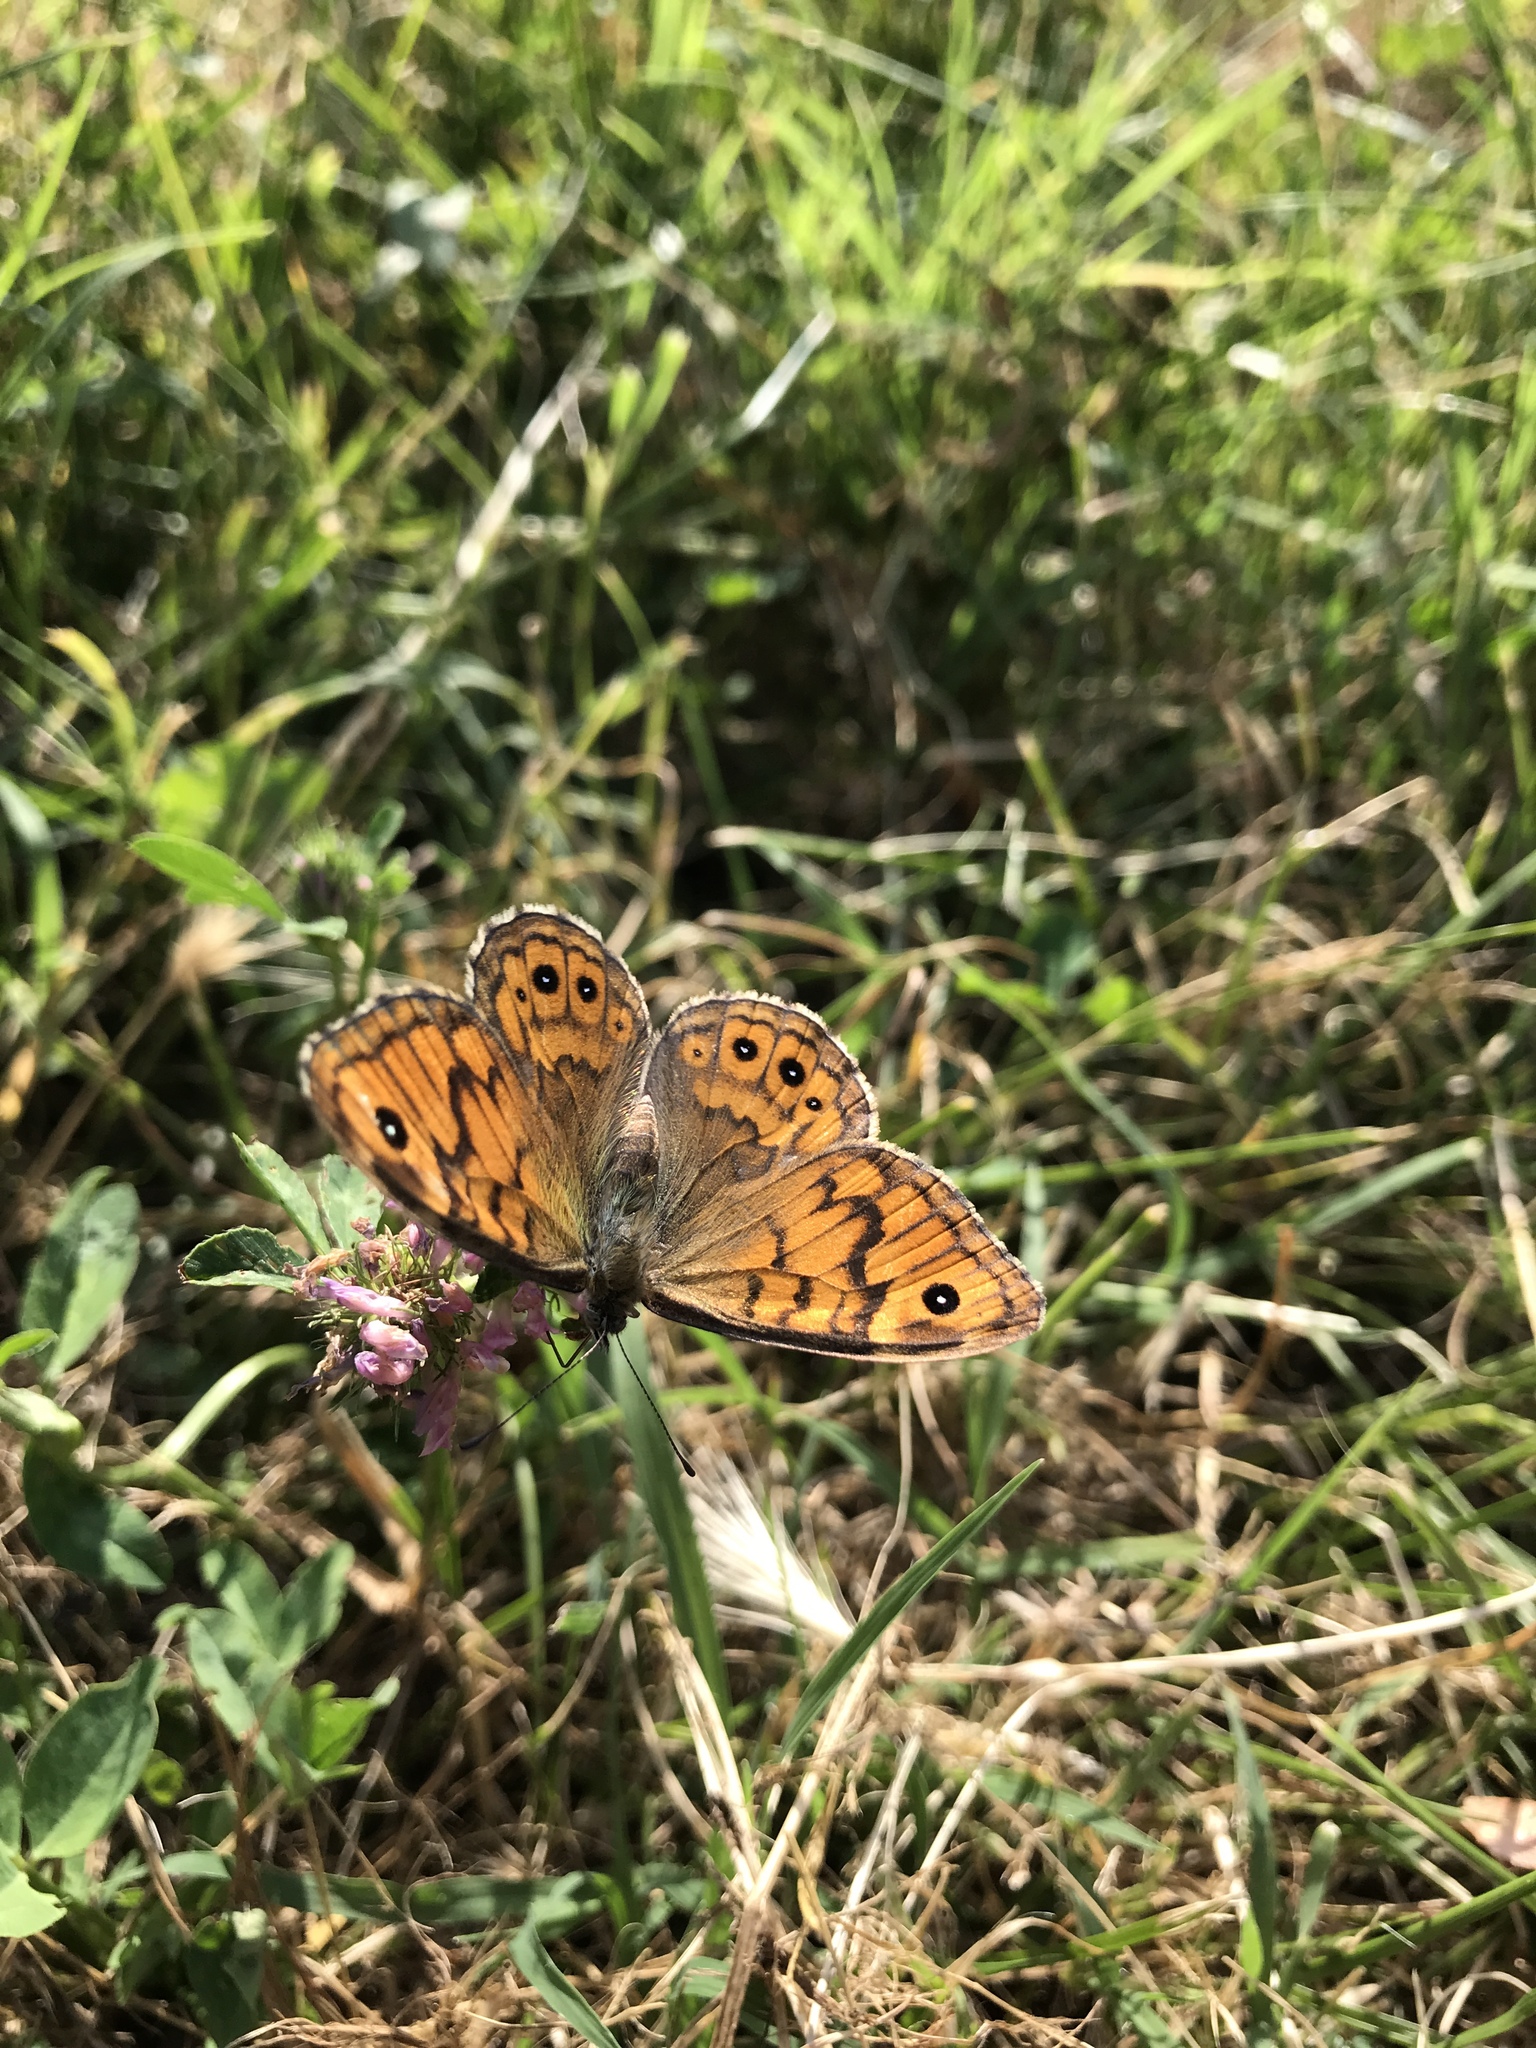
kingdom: Animalia
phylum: Arthropoda
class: Insecta
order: Lepidoptera
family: Nymphalidae
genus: Pararge
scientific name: Pararge Lasiommata megera
